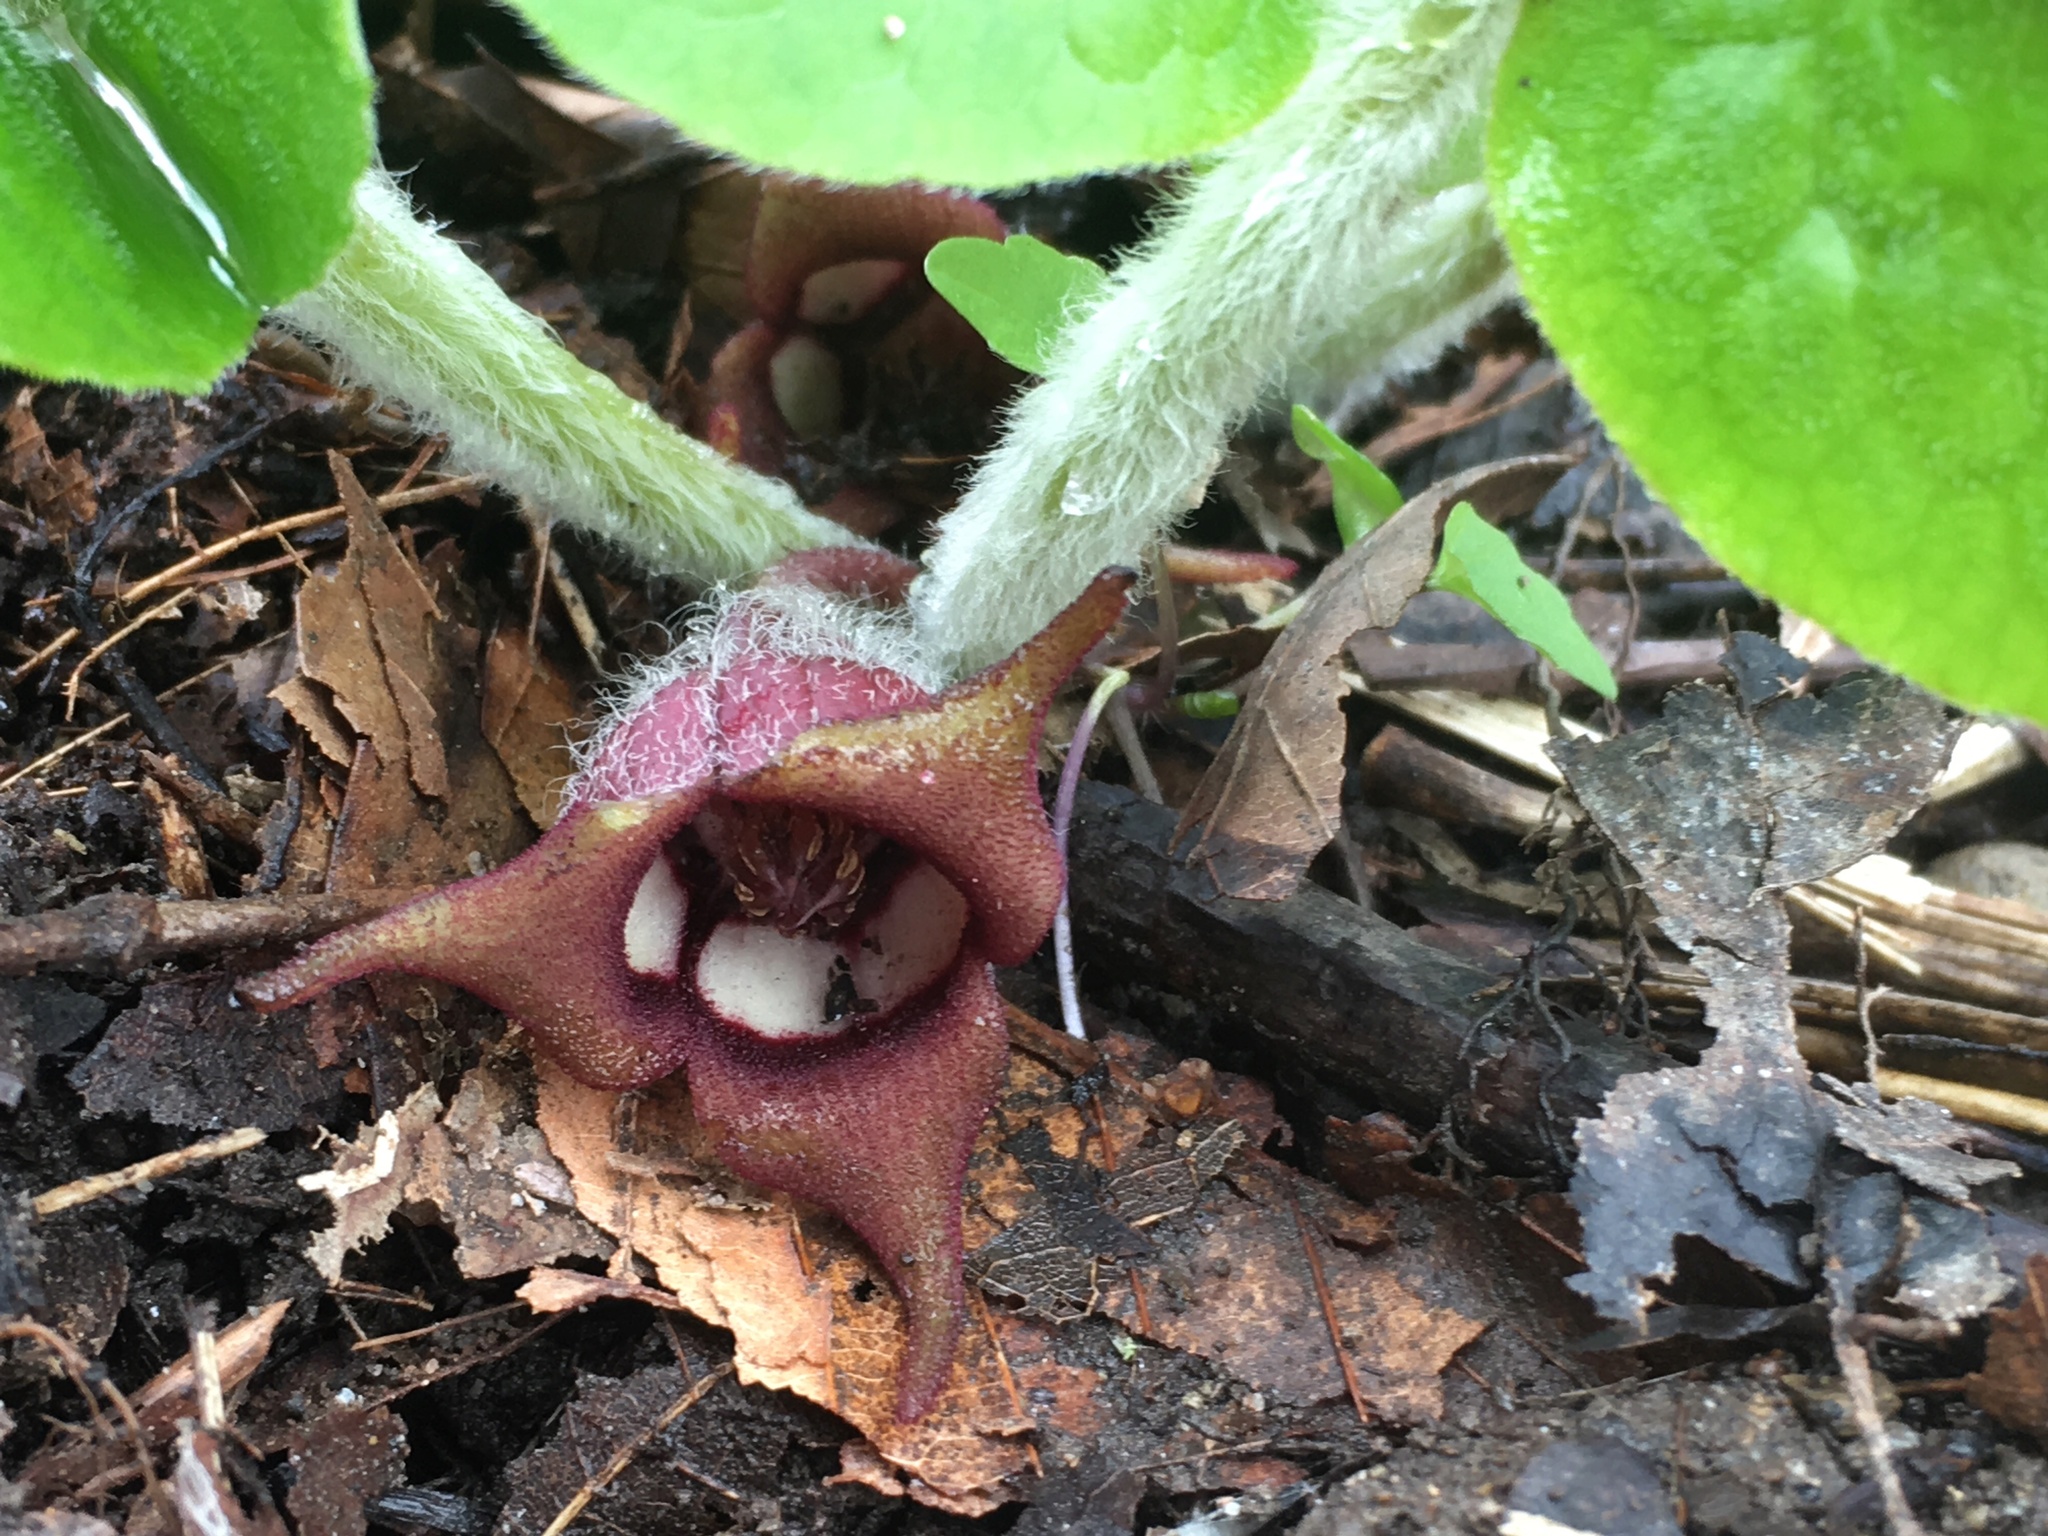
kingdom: Plantae
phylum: Tracheophyta
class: Magnoliopsida
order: Piperales
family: Aristolochiaceae
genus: Asarum
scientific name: Asarum canadense
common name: Wild ginger
